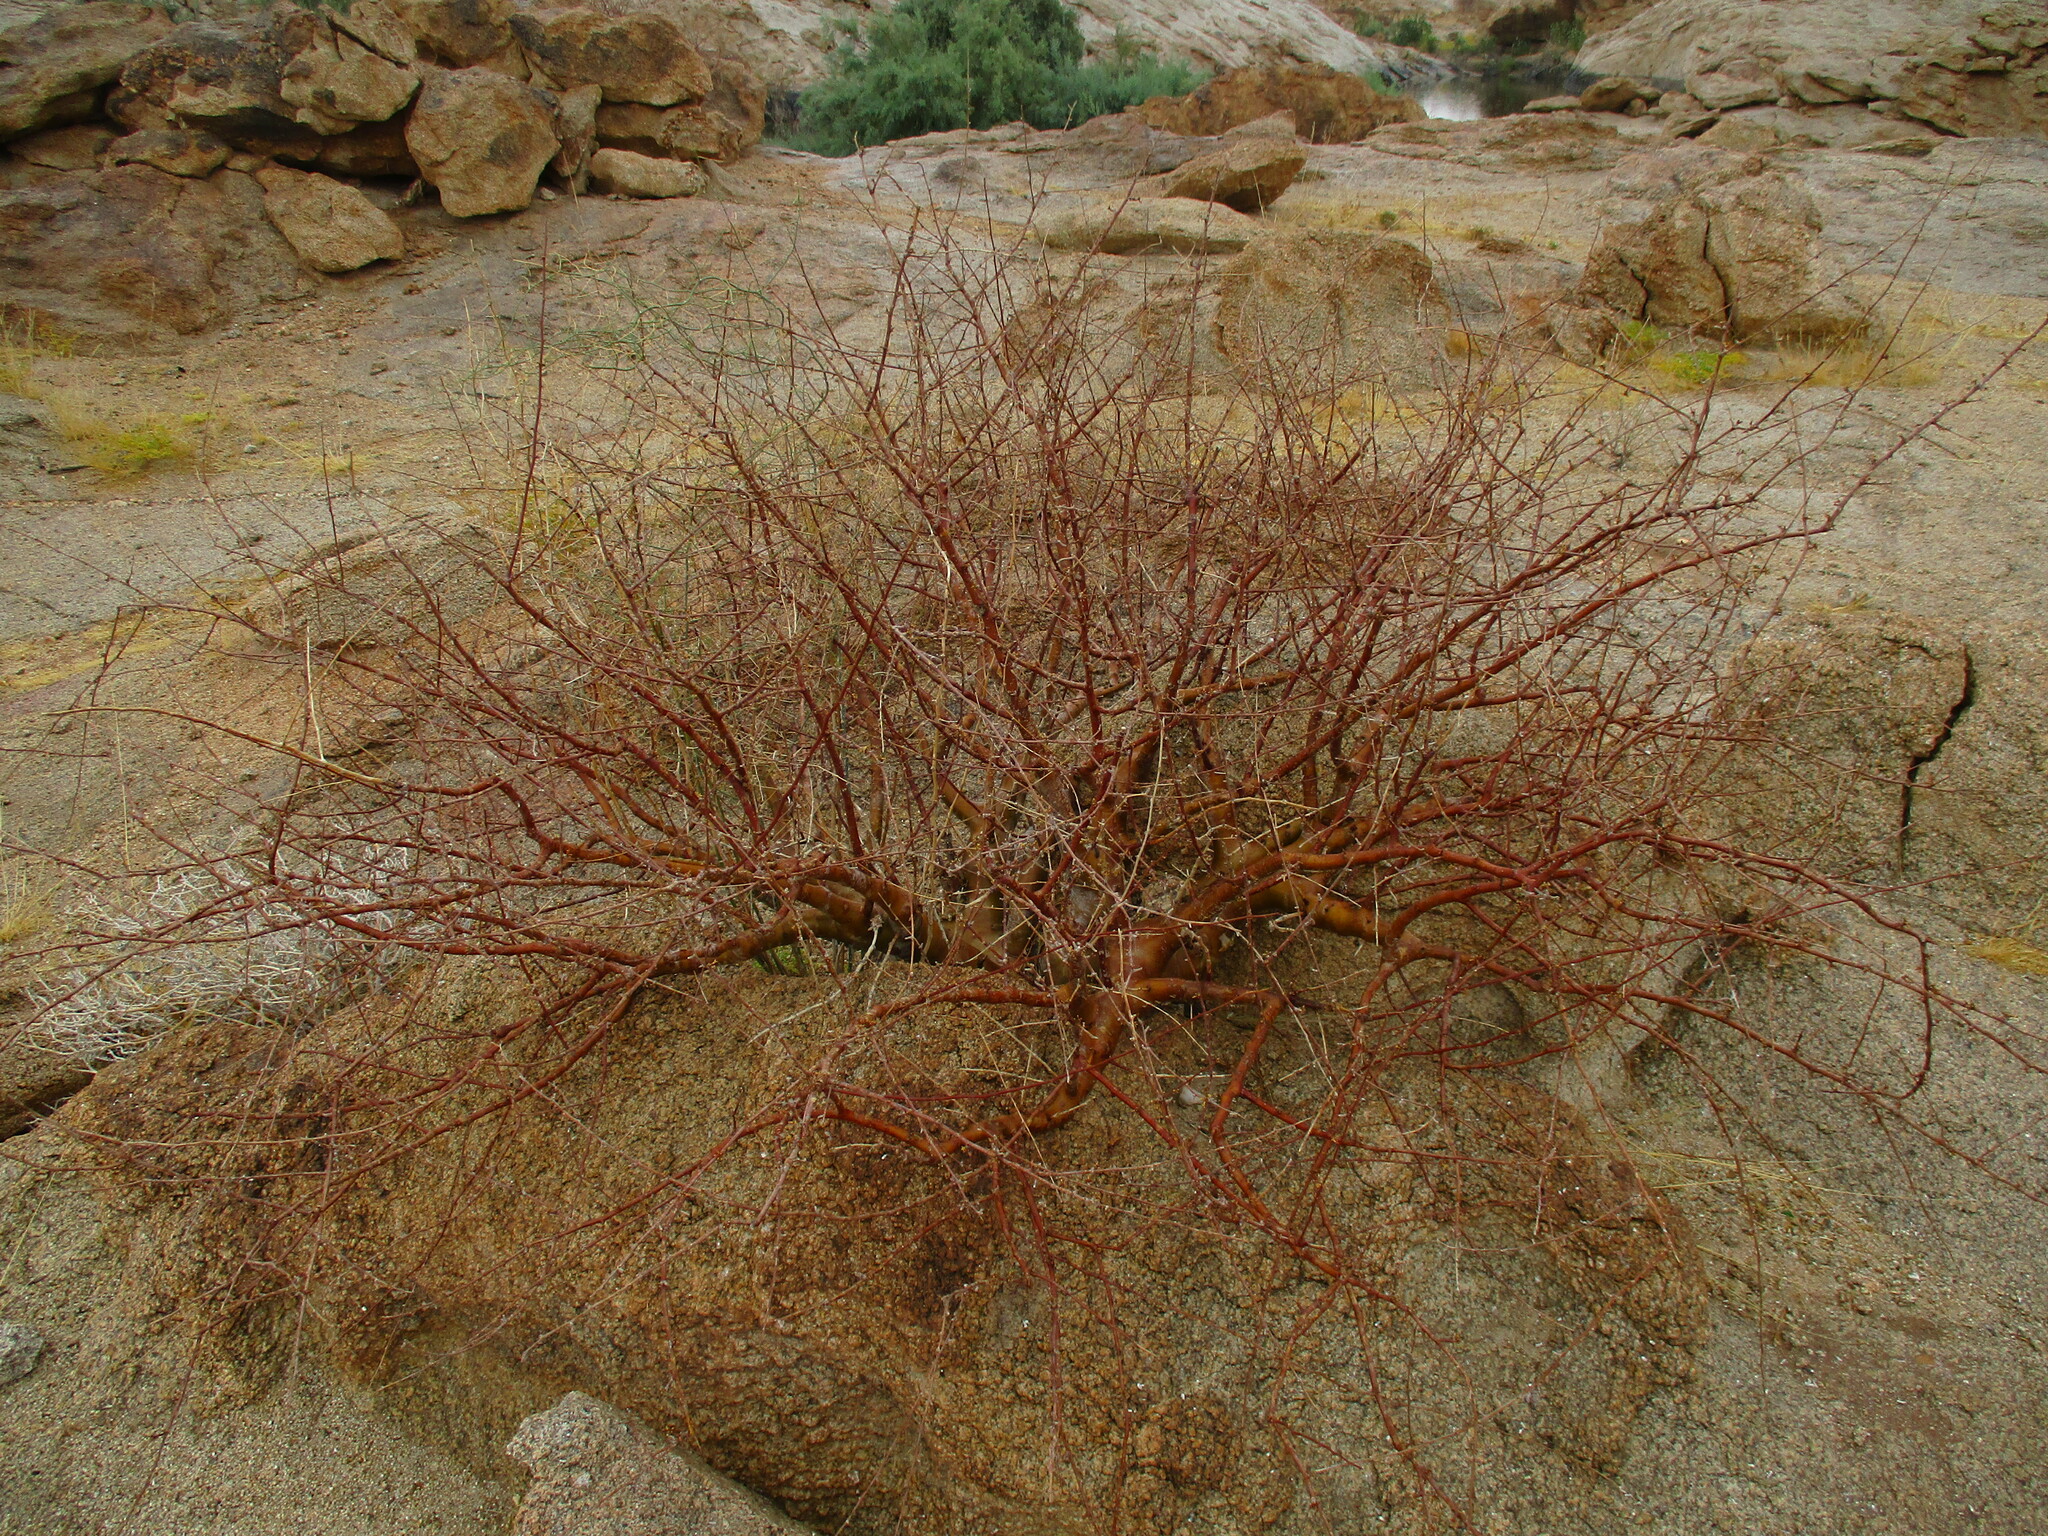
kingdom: Plantae
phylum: Tracheophyta
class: Magnoliopsida
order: Sapindales
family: Burseraceae
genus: Commiphora
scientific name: Commiphora glaucescens
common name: Blue-leaved corkwood
